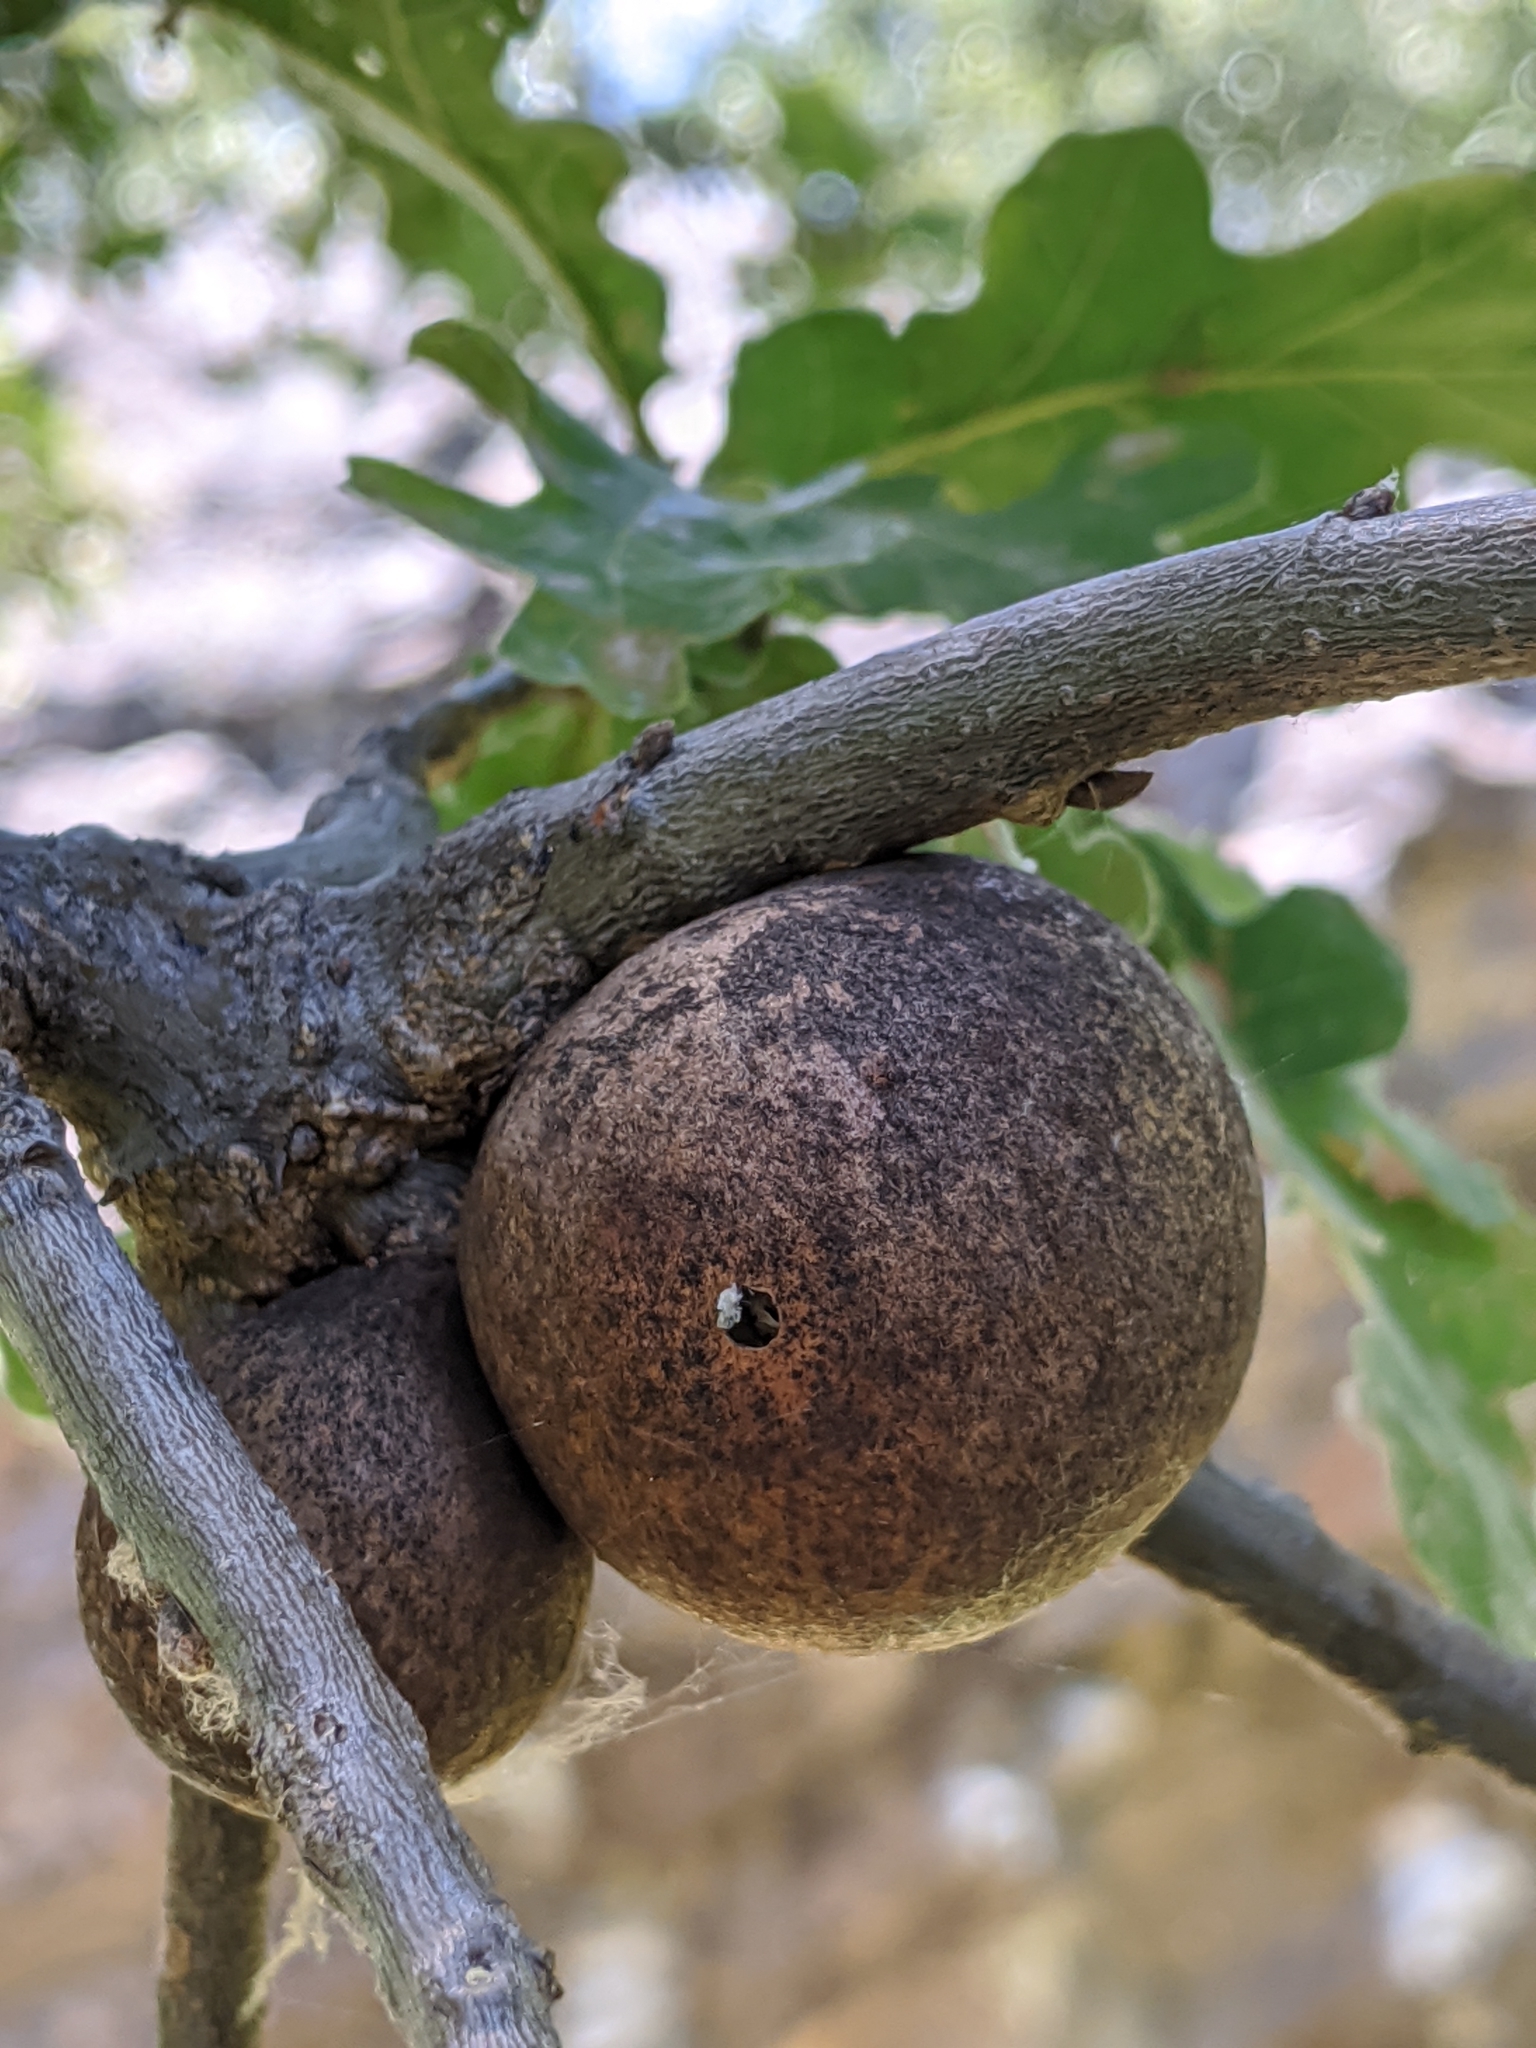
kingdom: Animalia
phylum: Arthropoda
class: Insecta
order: Hymenoptera
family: Cynipidae
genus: Andricus
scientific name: Andricus quercuscalifornicus
